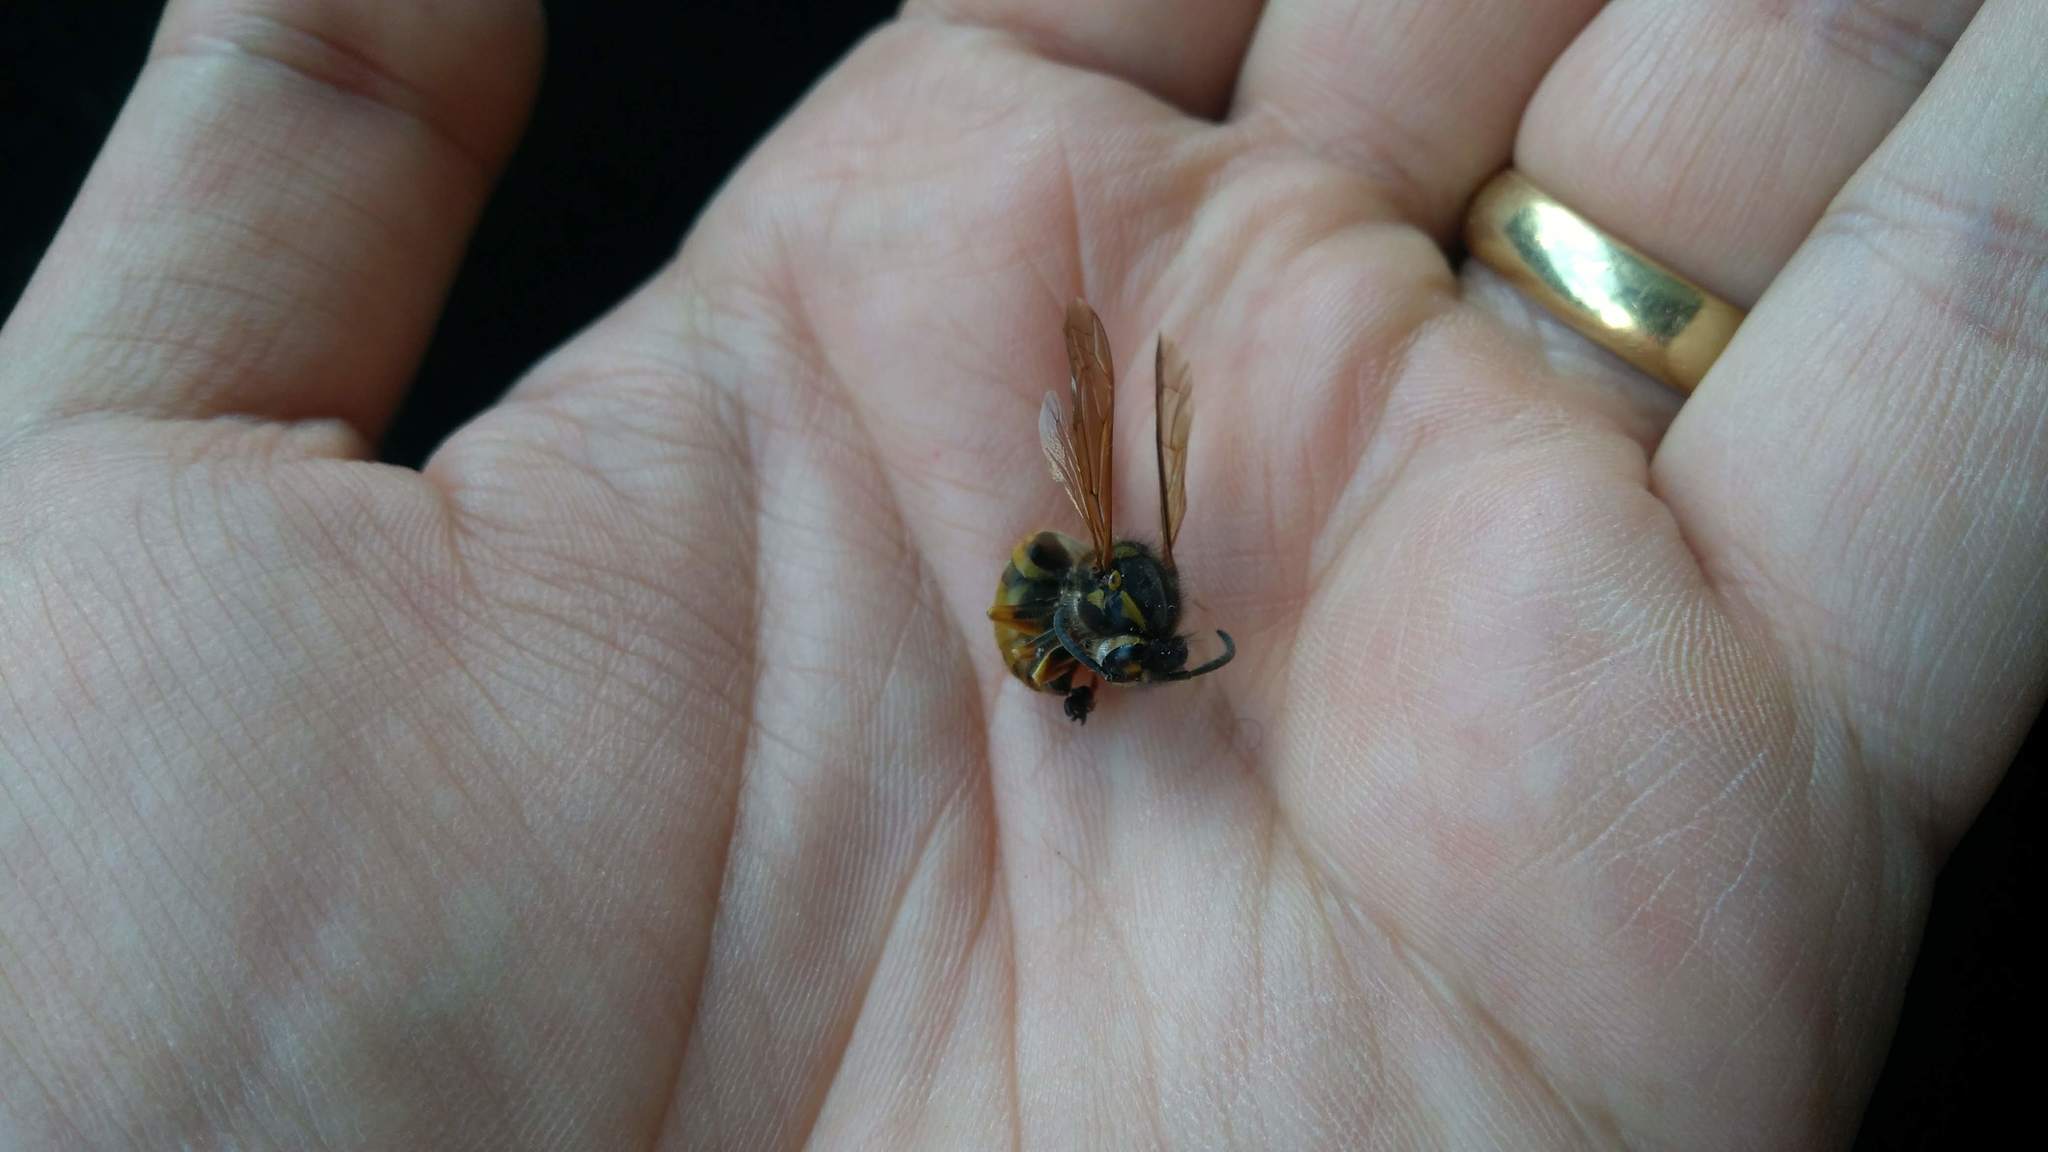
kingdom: Animalia
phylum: Arthropoda
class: Insecta
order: Hymenoptera
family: Vespidae
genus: Vespula
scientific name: Vespula germanica
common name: German wasp
